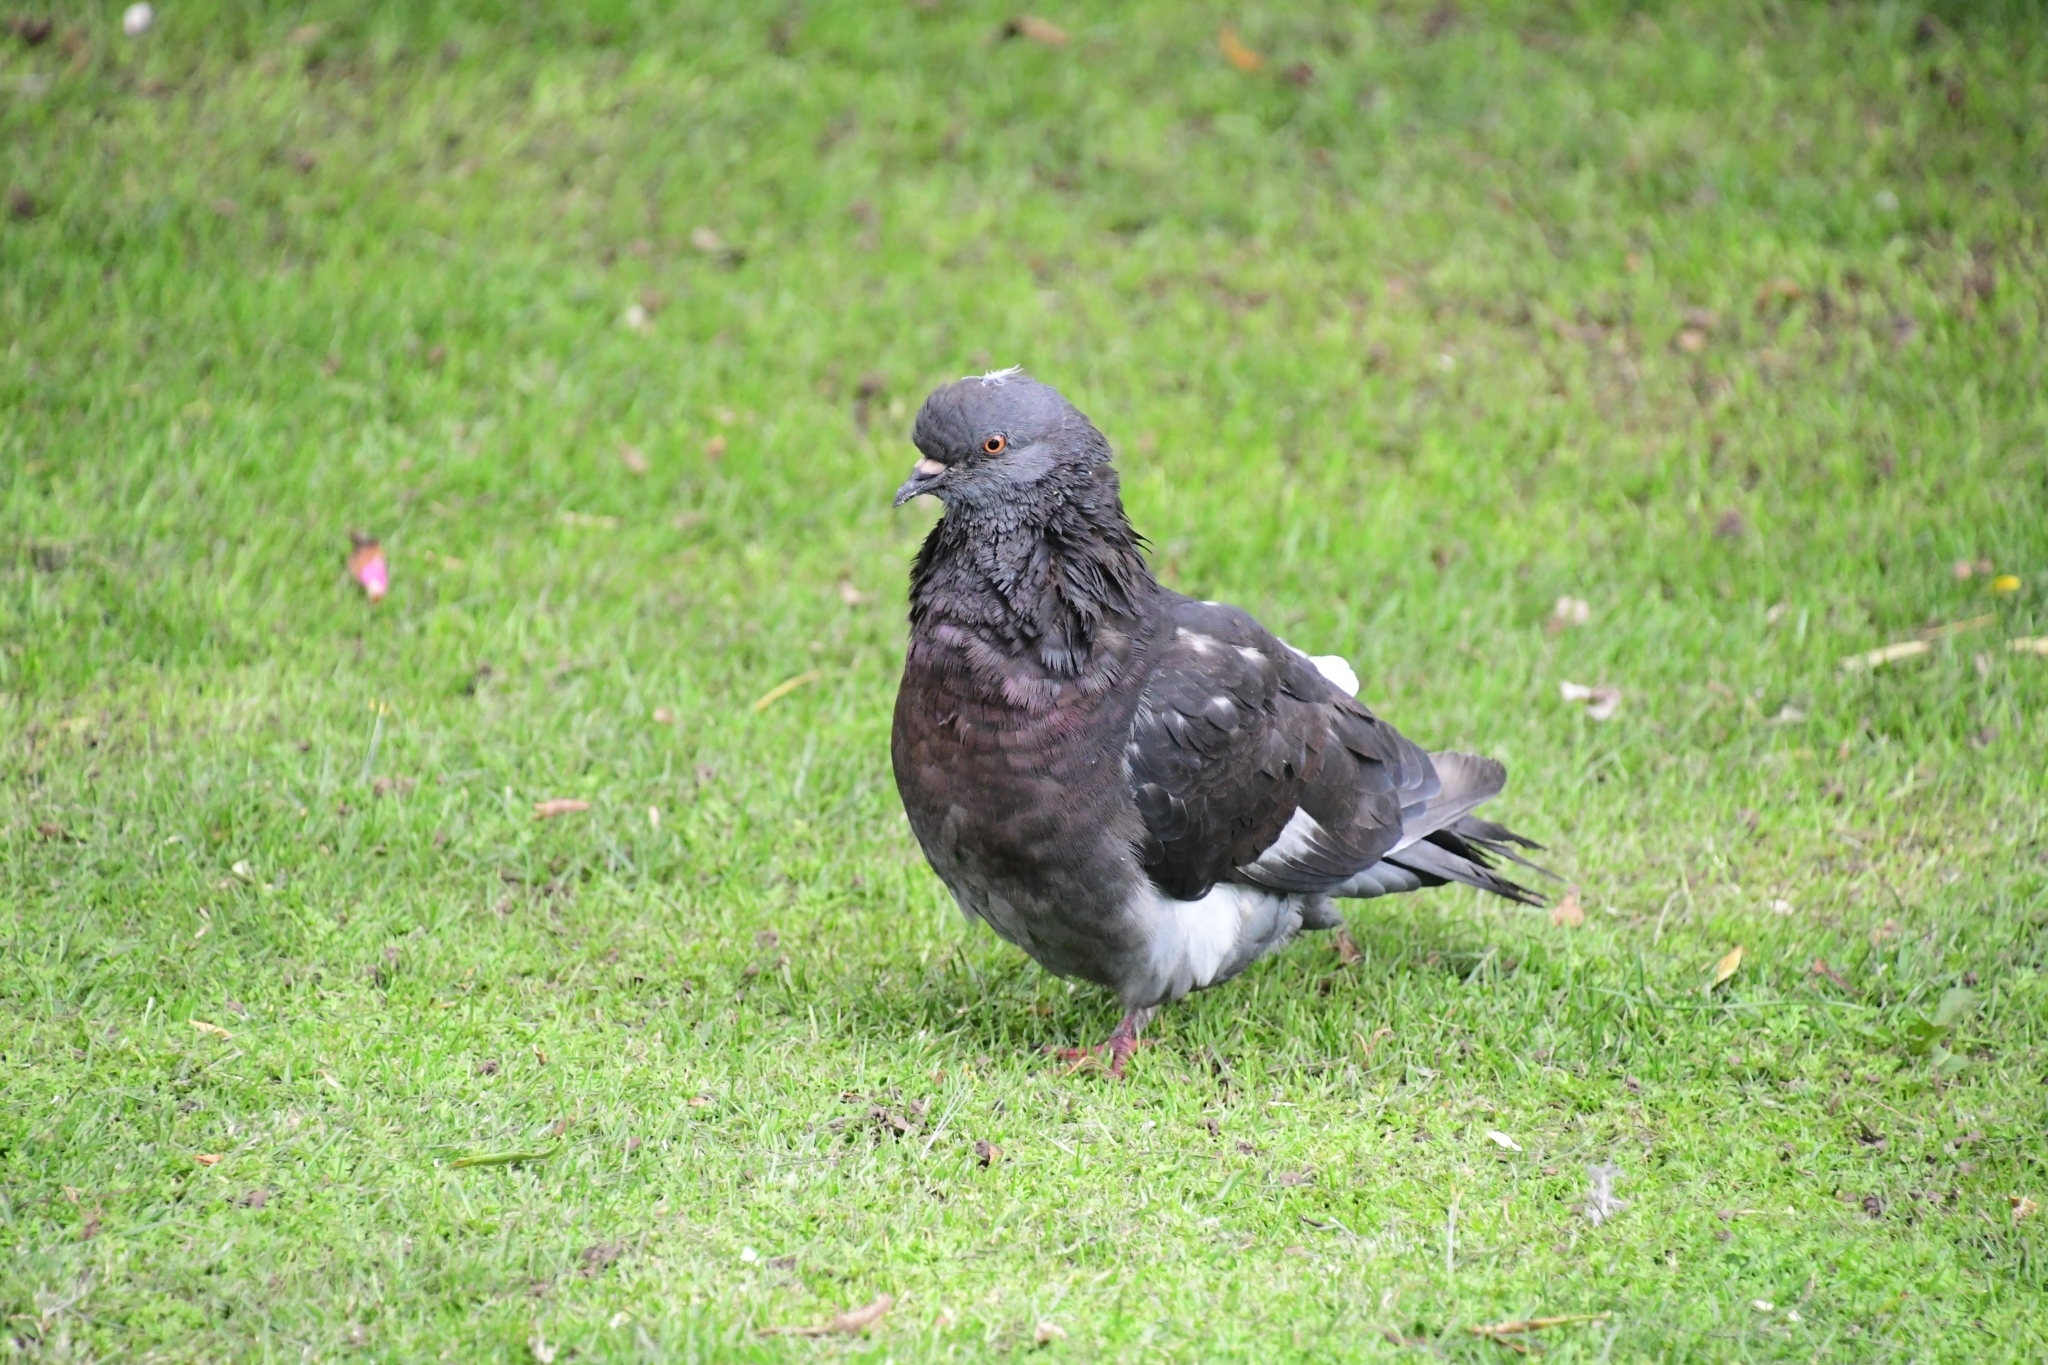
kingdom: Animalia
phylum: Chordata
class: Aves
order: Columbiformes
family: Columbidae
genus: Columba
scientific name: Columba livia
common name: Rock pigeon
